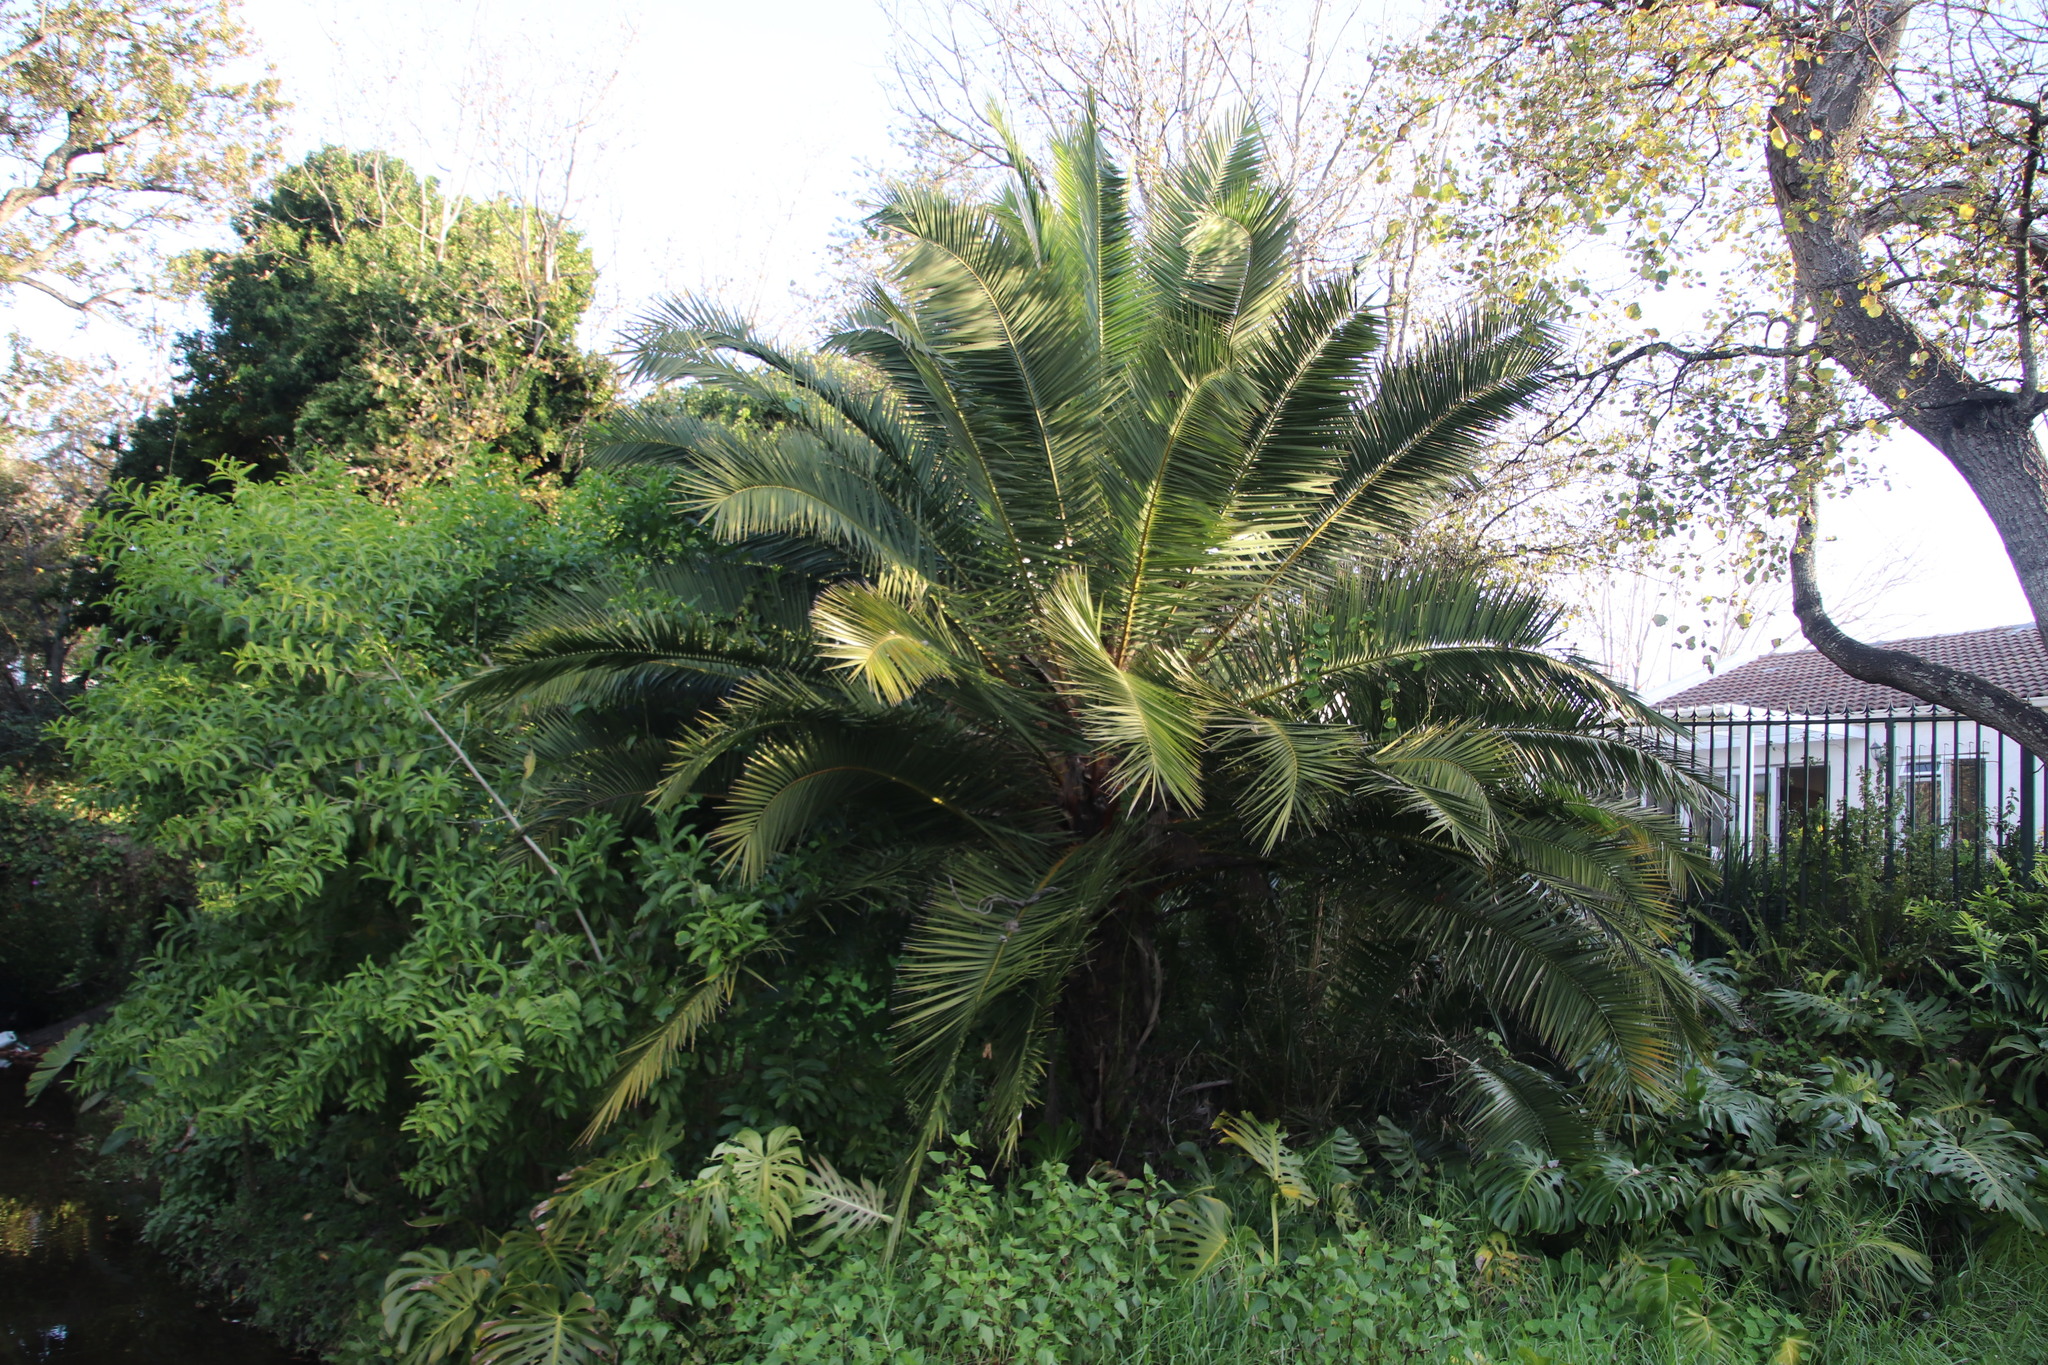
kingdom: Plantae
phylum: Tracheophyta
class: Liliopsida
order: Arecales
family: Arecaceae
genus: Phoenix
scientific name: Phoenix canariensis
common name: Canary island date palm
